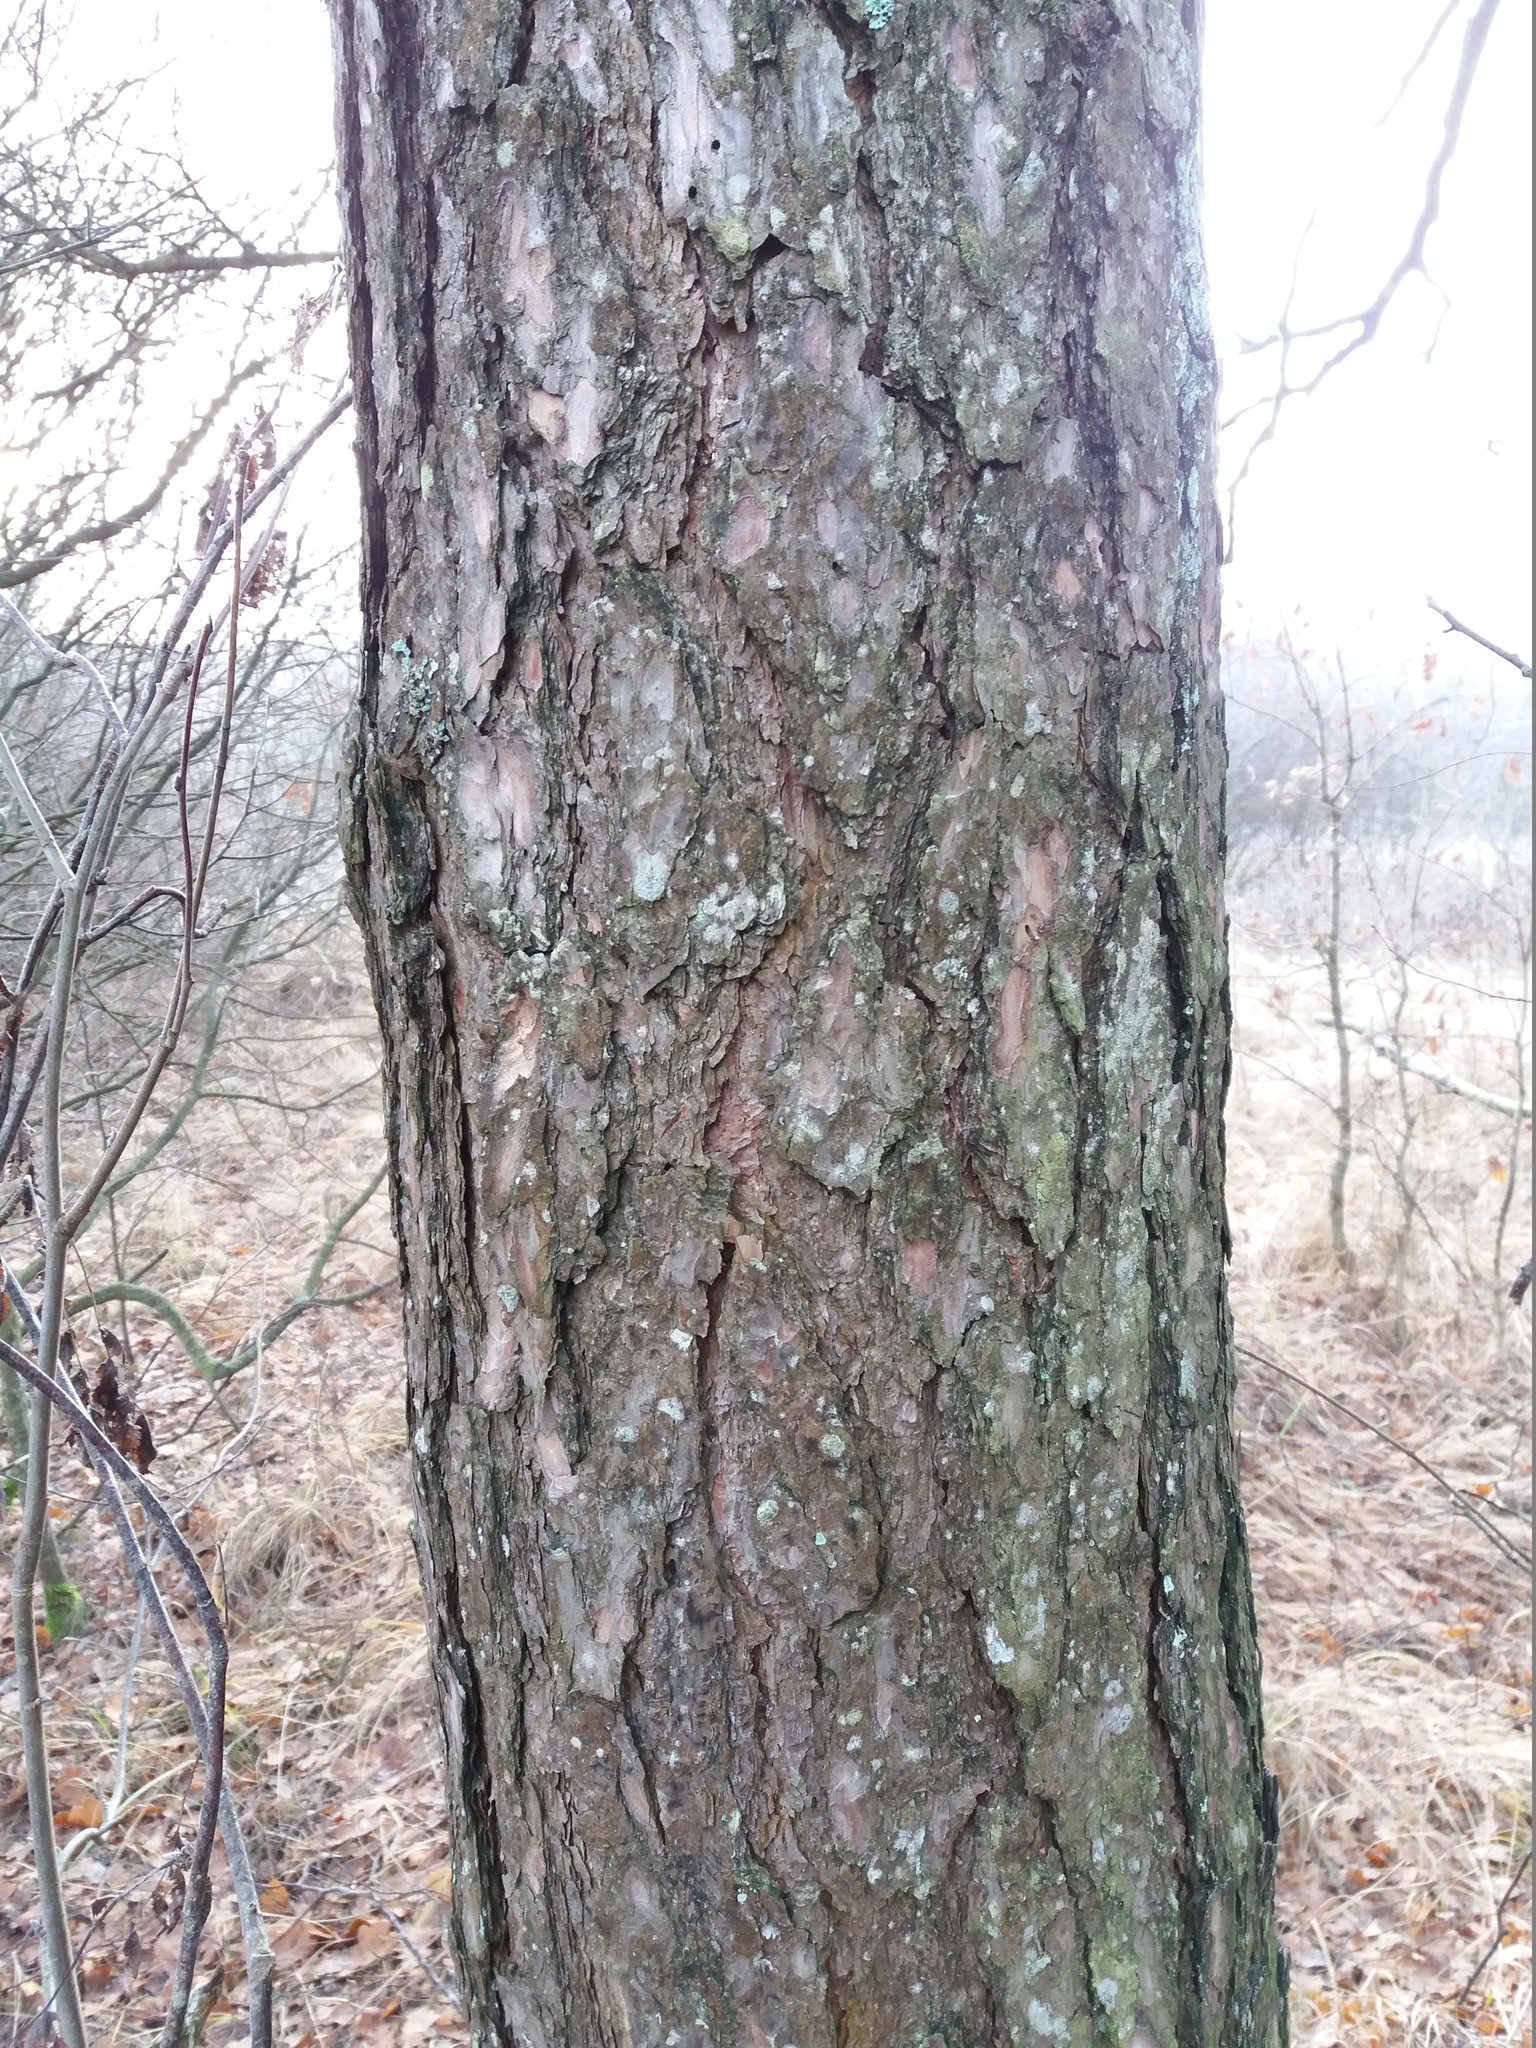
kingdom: Plantae
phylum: Tracheophyta
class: Pinopsida
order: Pinales
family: Pinaceae
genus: Pinus
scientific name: Pinus sylvestris
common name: Scots pine
